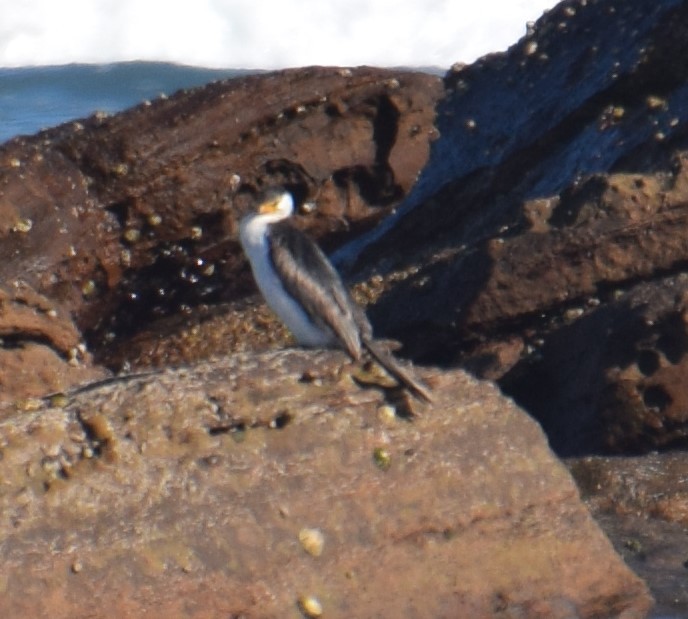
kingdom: Animalia
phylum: Chordata
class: Aves
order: Suliformes
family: Phalacrocoracidae
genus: Microcarbo
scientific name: Microcarbo melanoleucos
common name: Little pied cormorant
